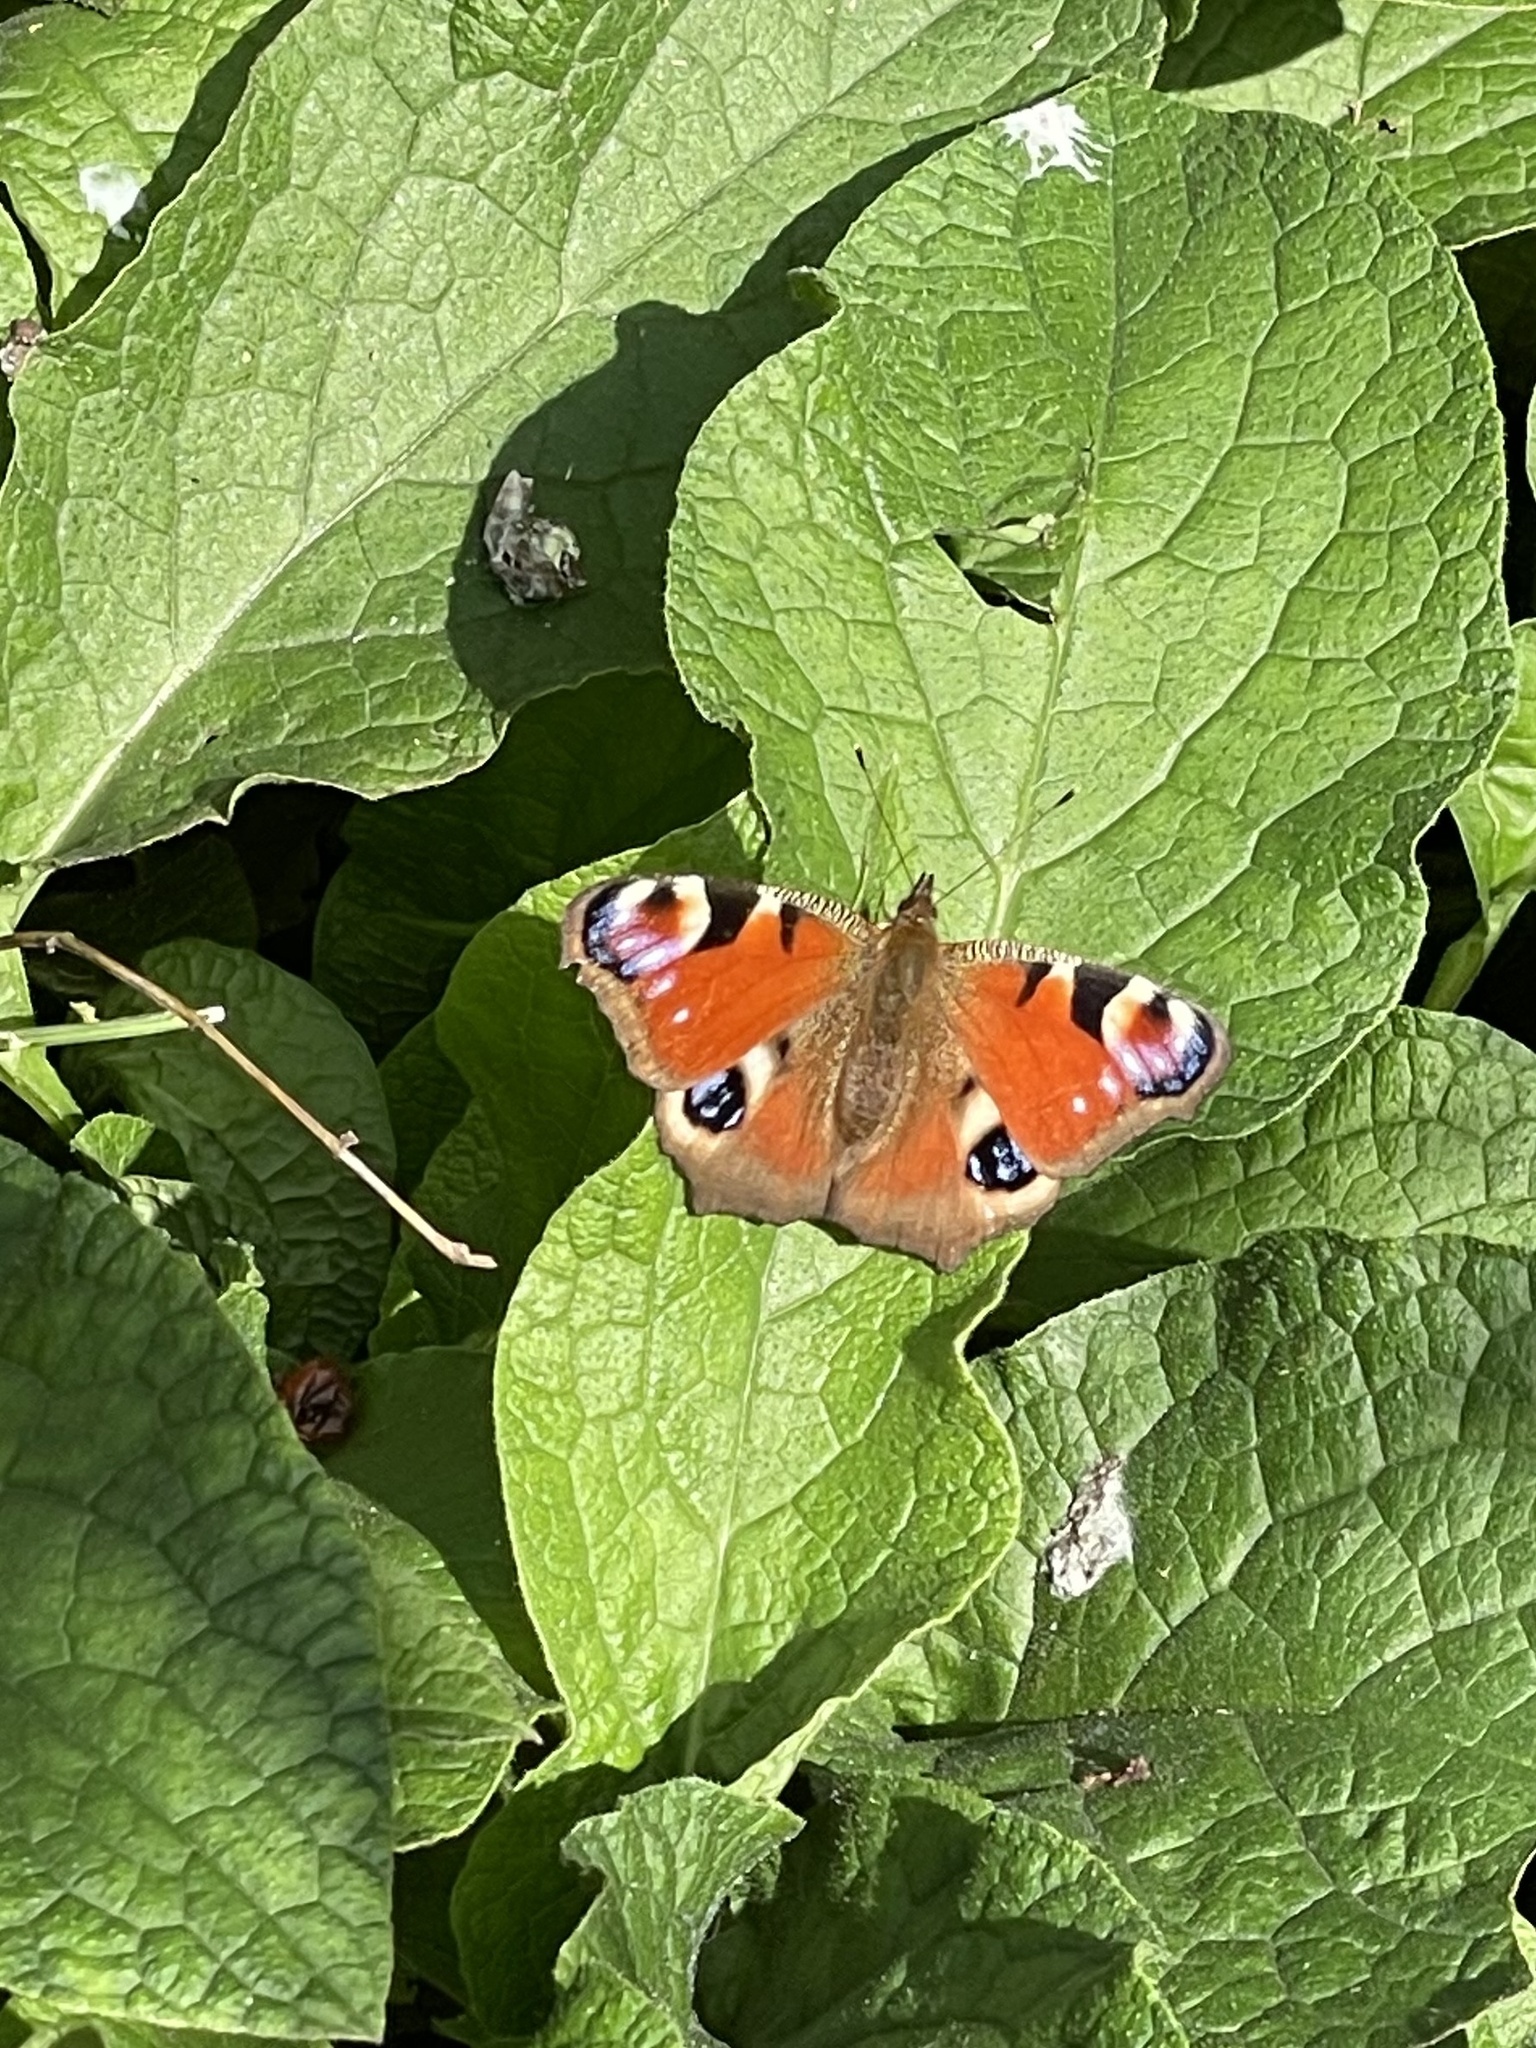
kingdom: Animalia
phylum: Arthropoda
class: Insecta
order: Lepidoptera
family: Nymphalidae
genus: Aglais
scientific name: Aglais io
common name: Peacock
